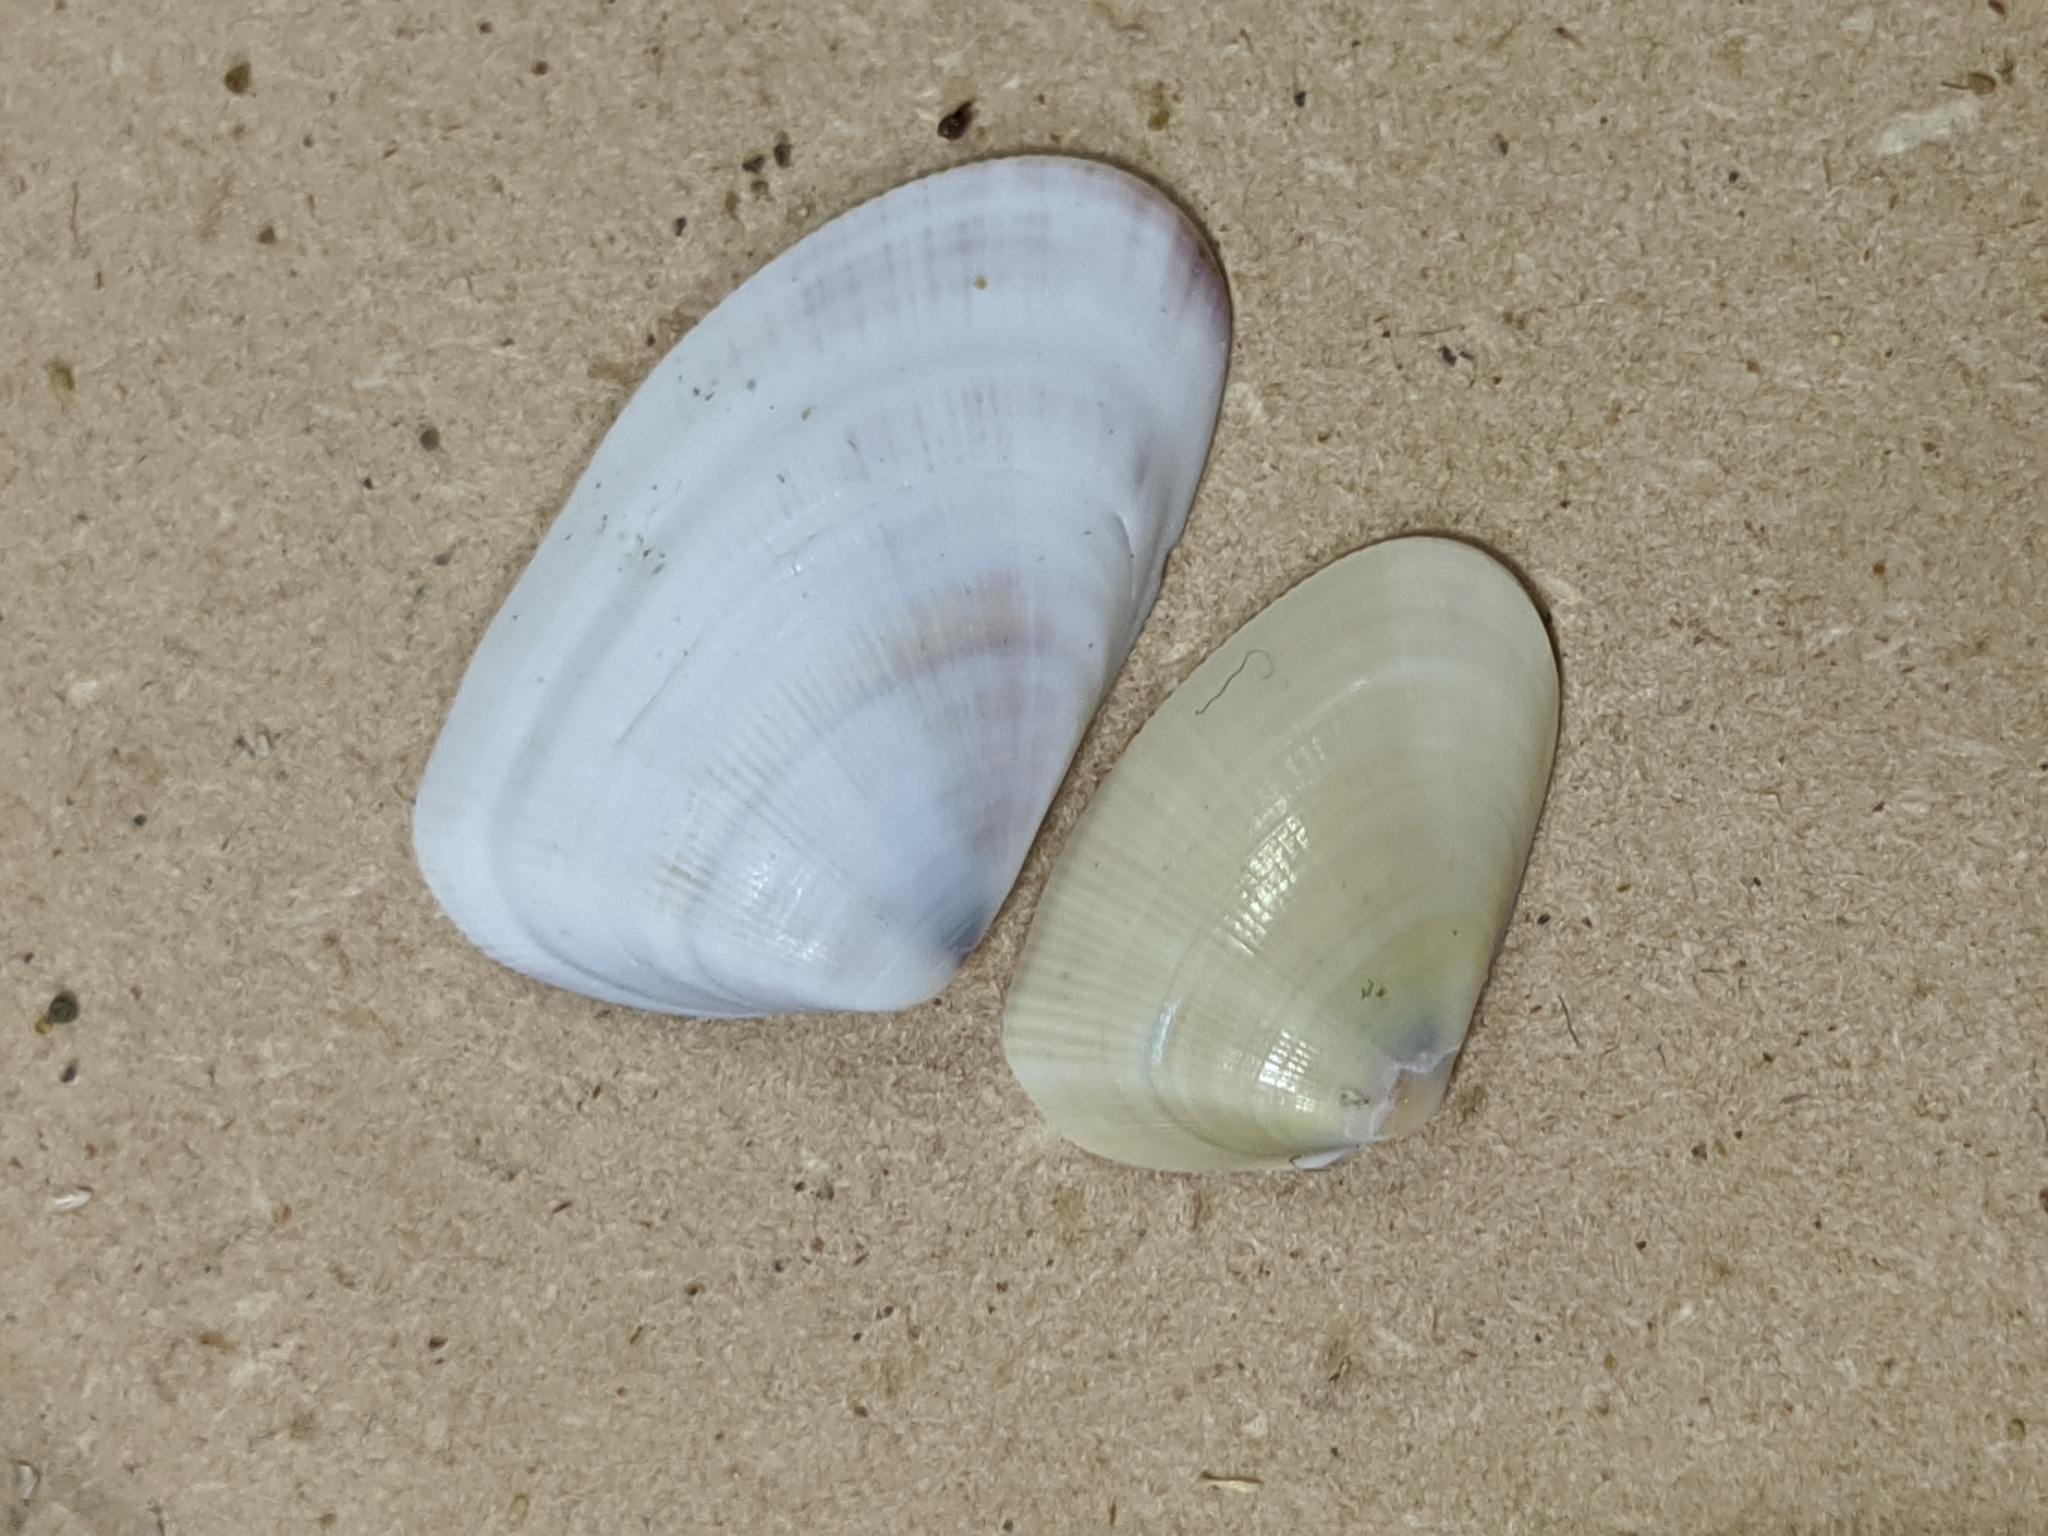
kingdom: Animalia
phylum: Mollusca
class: Bivalvia
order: Cardiida
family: Donacidae
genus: Donax
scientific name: Donax gouldii
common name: Gould beanclam
